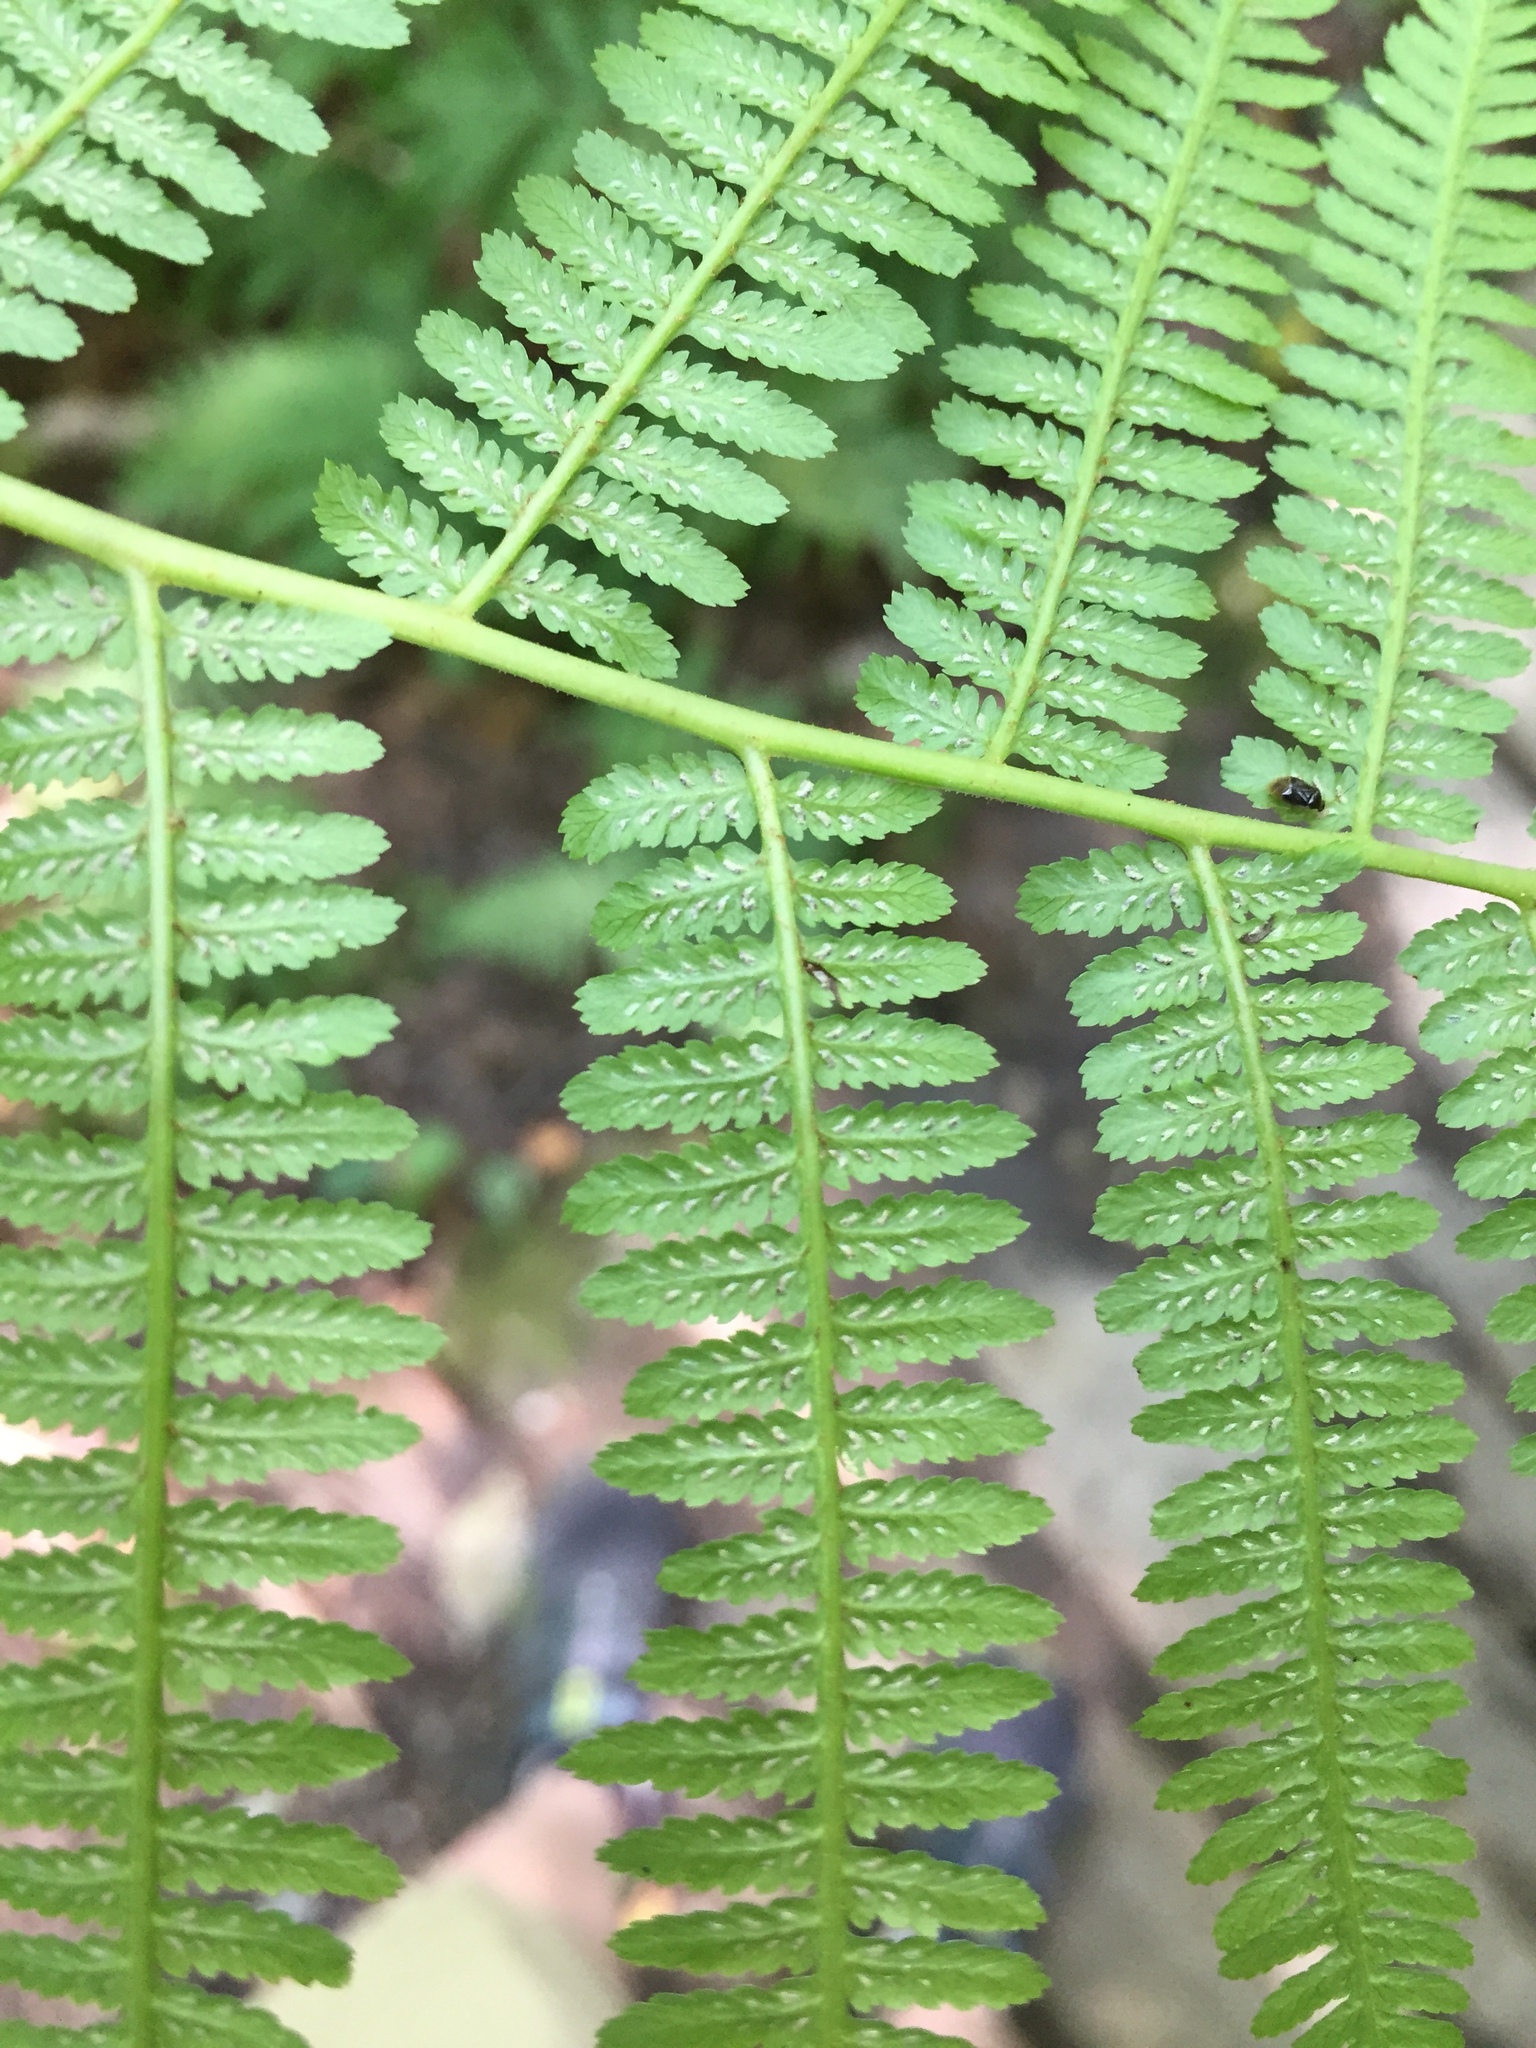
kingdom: Plantae
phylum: Tracheophyta
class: Polypodiopsida
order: Polypodiales
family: Athyriaceae
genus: Athyrium
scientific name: Athyrium angustum
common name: Northern lady fern
